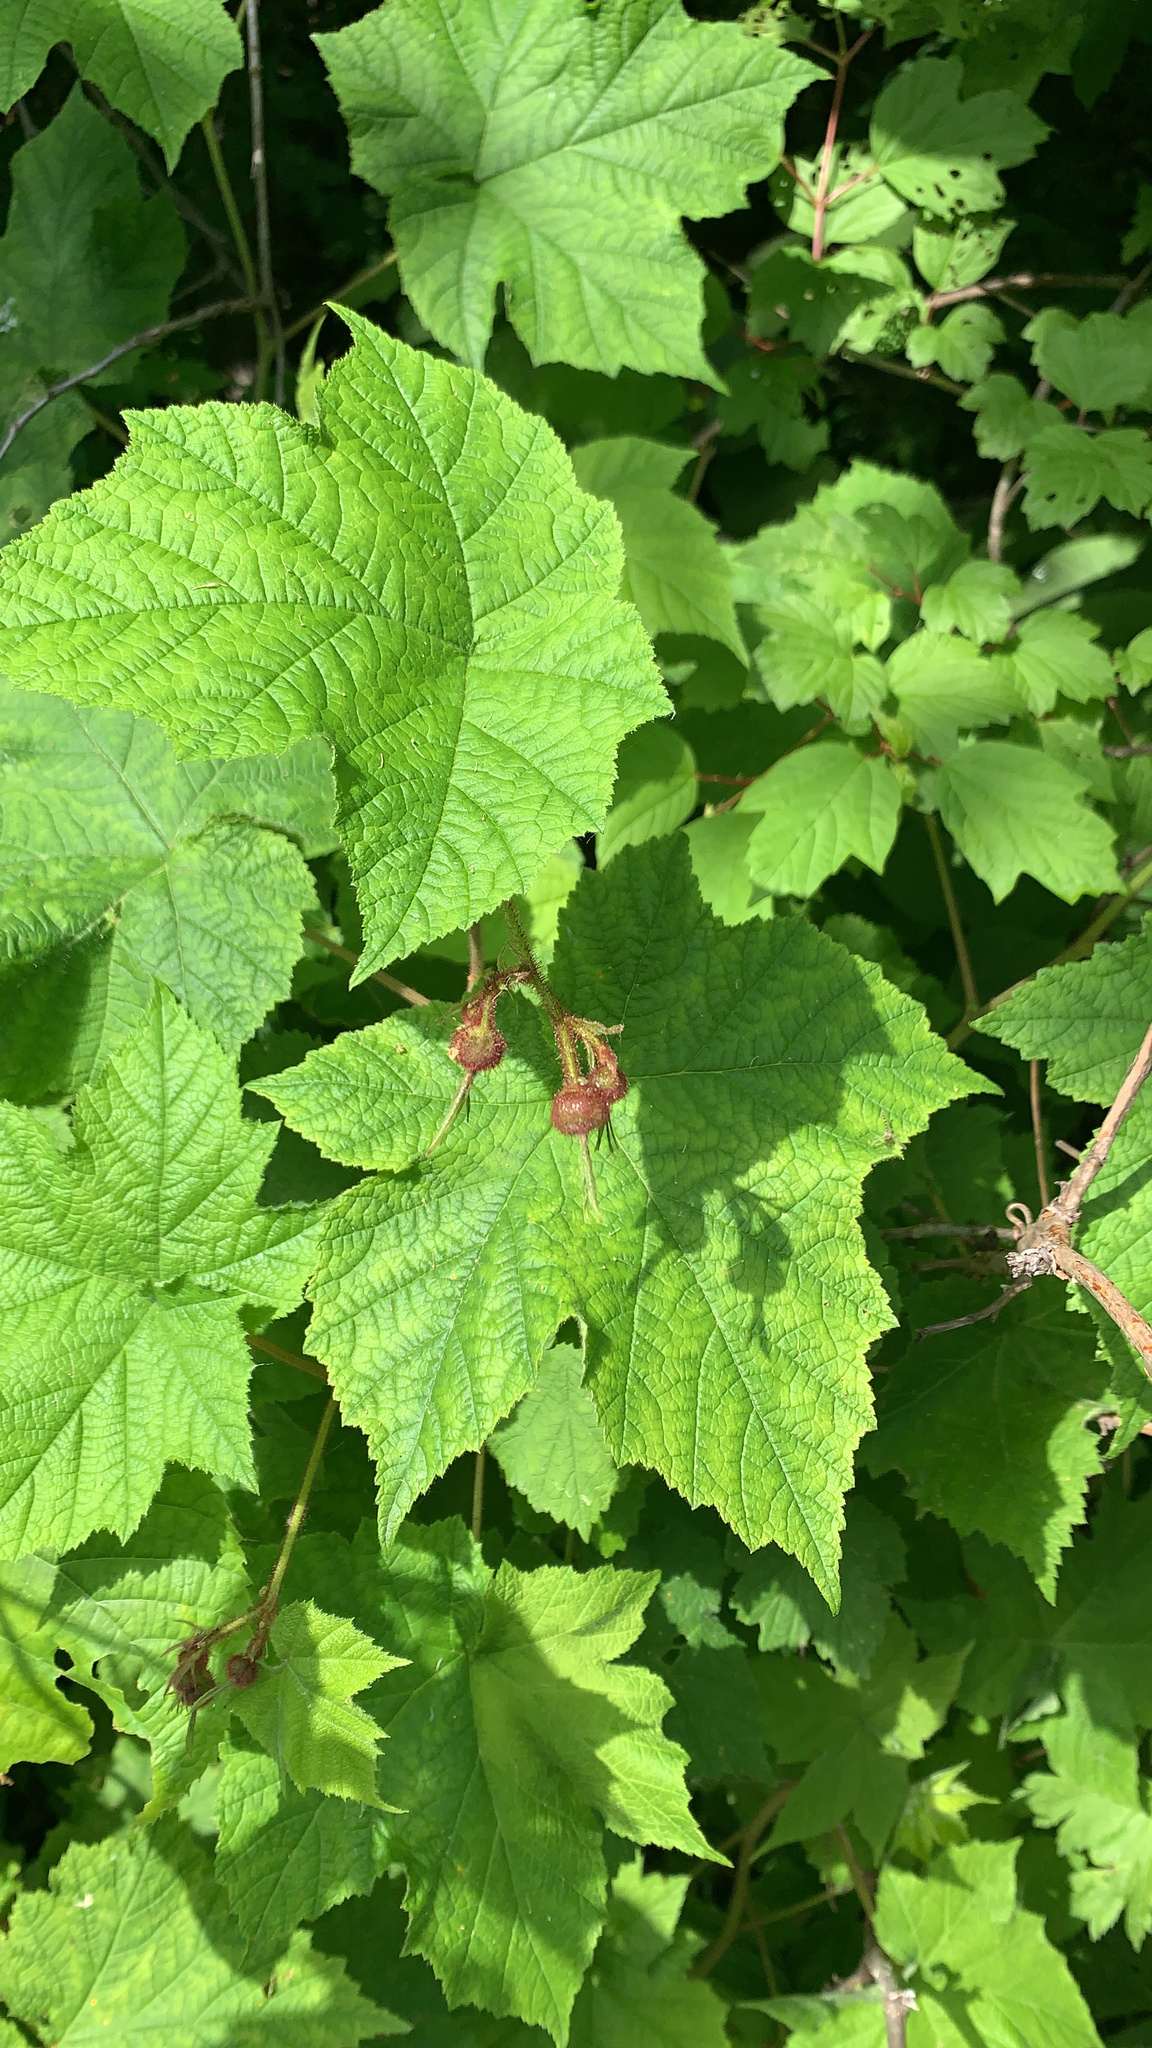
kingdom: Plantae
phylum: Tracheophyta
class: Magnoliopsida
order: Rosales
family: Rosaceae
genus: Rubus
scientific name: Rubus odoratus
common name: Purple-flowered raspberry
